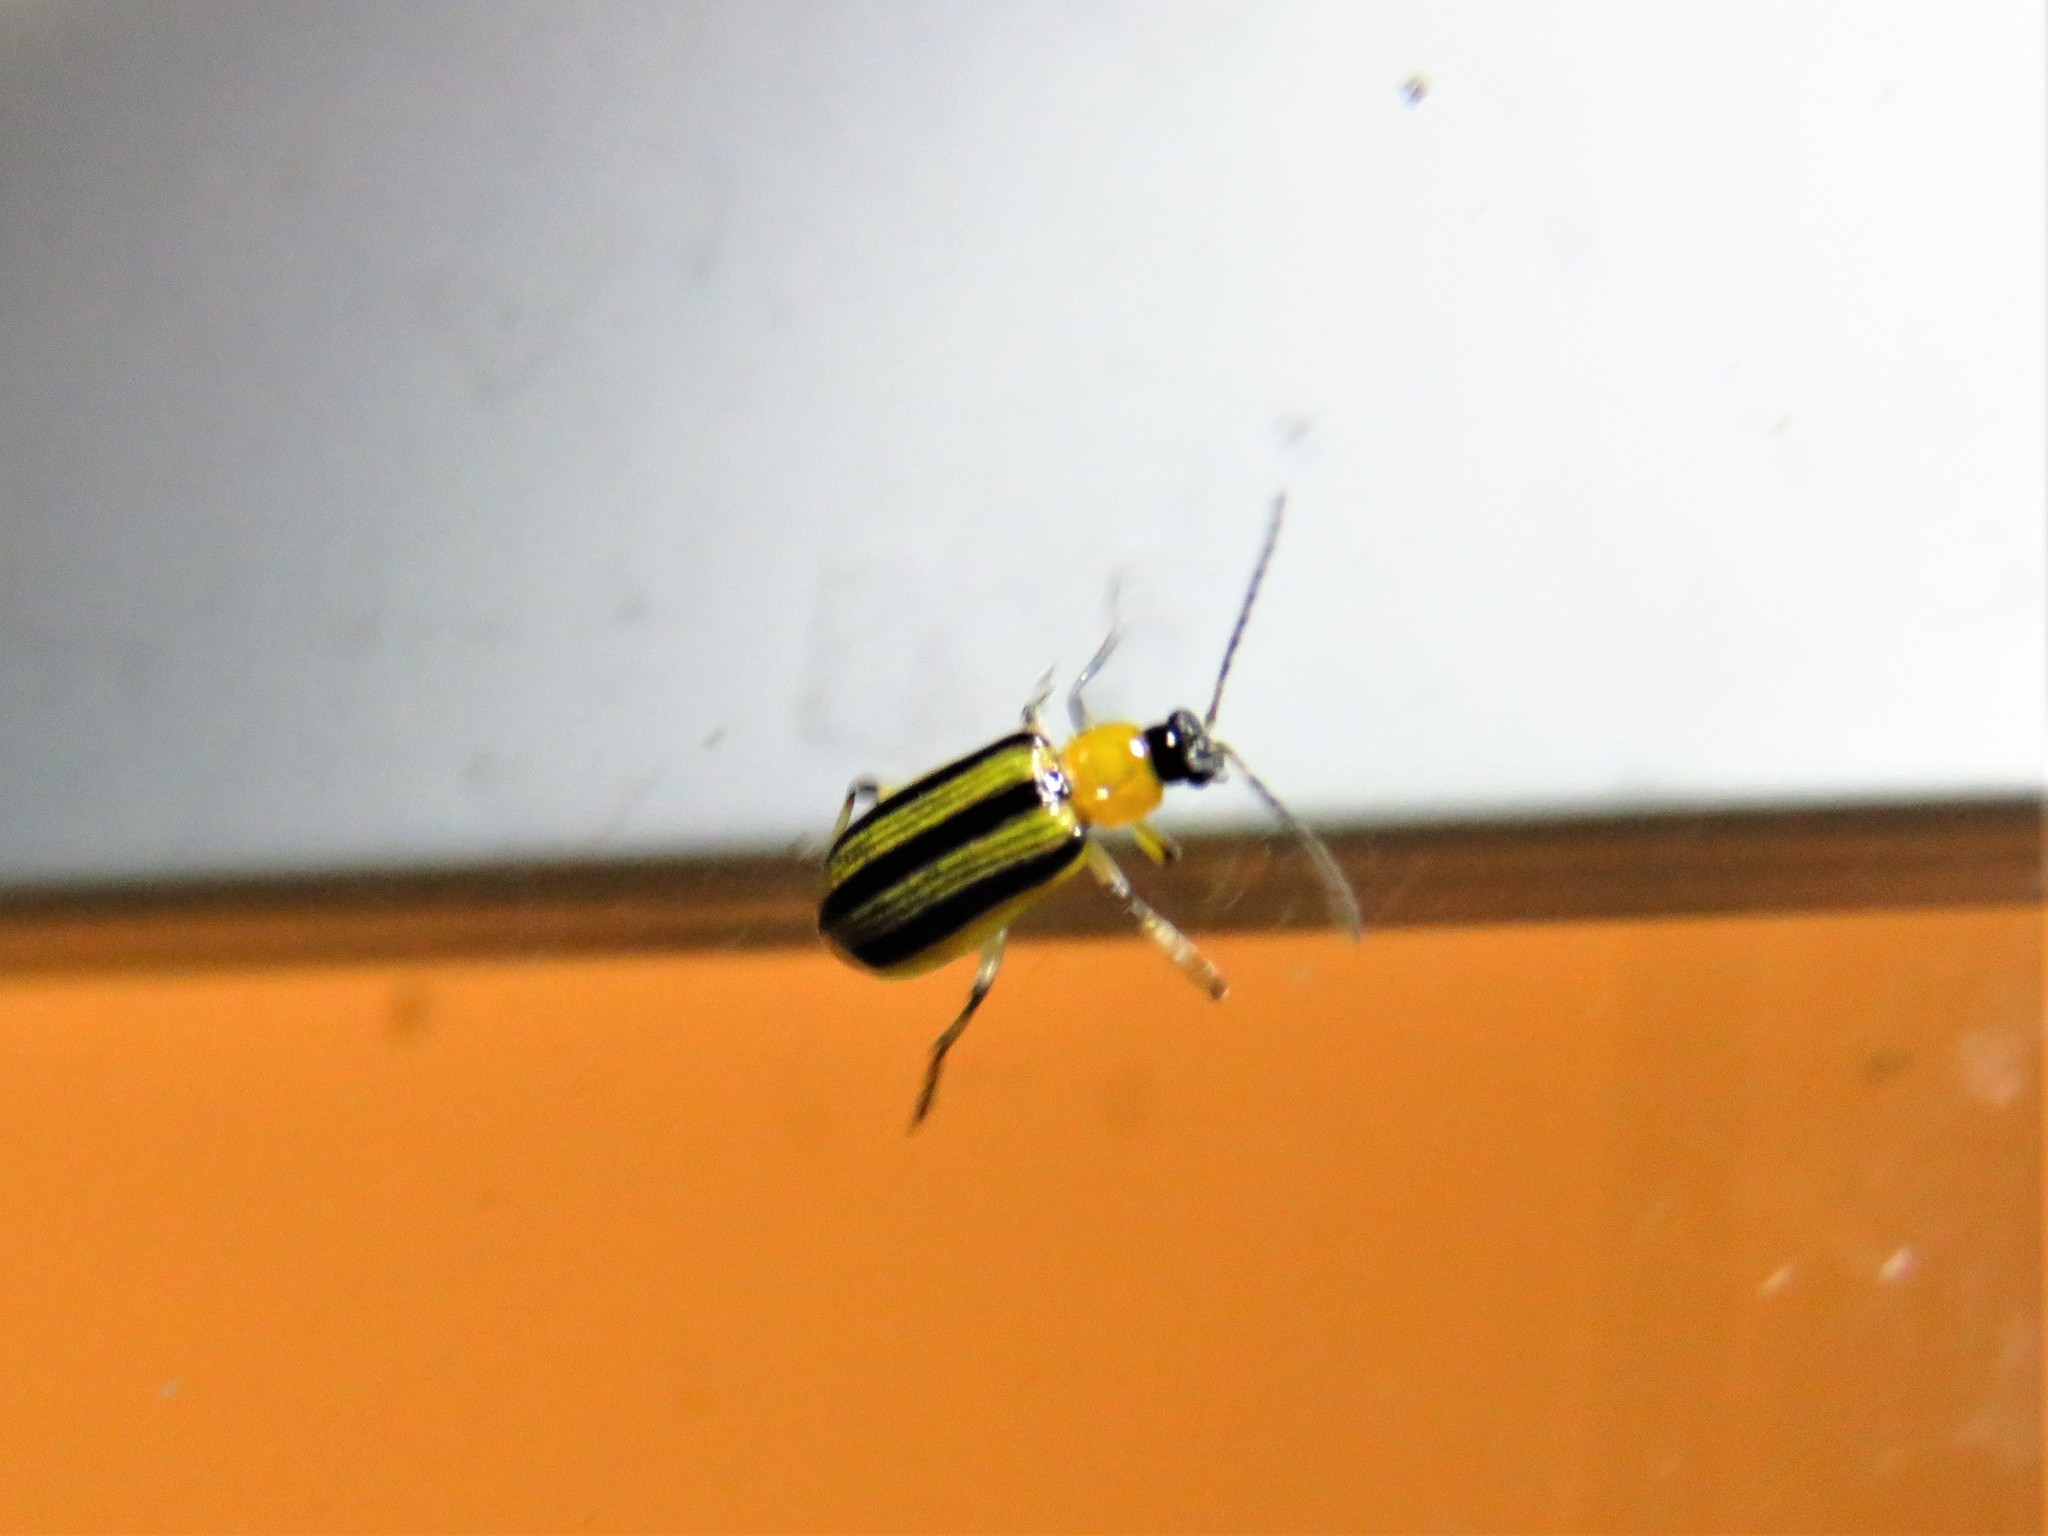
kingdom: Animalia
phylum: Arthropoda
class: Insecta
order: Coleoptera
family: Chrysomelidae
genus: Acalymma
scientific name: Acalymma vittatum
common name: Striped cucumber beetle
